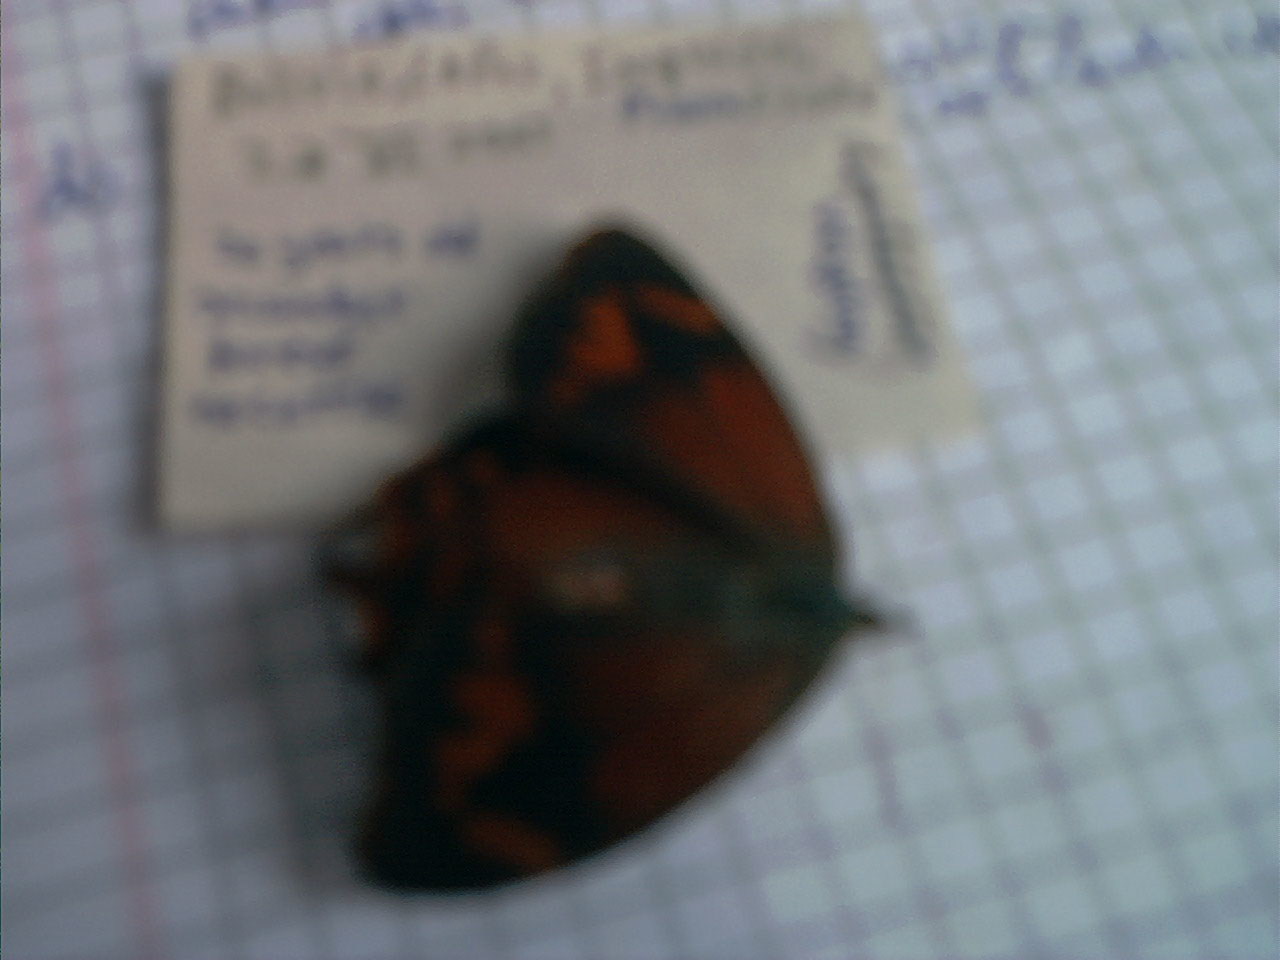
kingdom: Animalia
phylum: Arthropoda
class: Insecta
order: Lepidoptera
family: Nymphalidae
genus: Lasiophila
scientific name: Lasiophila orbifera
